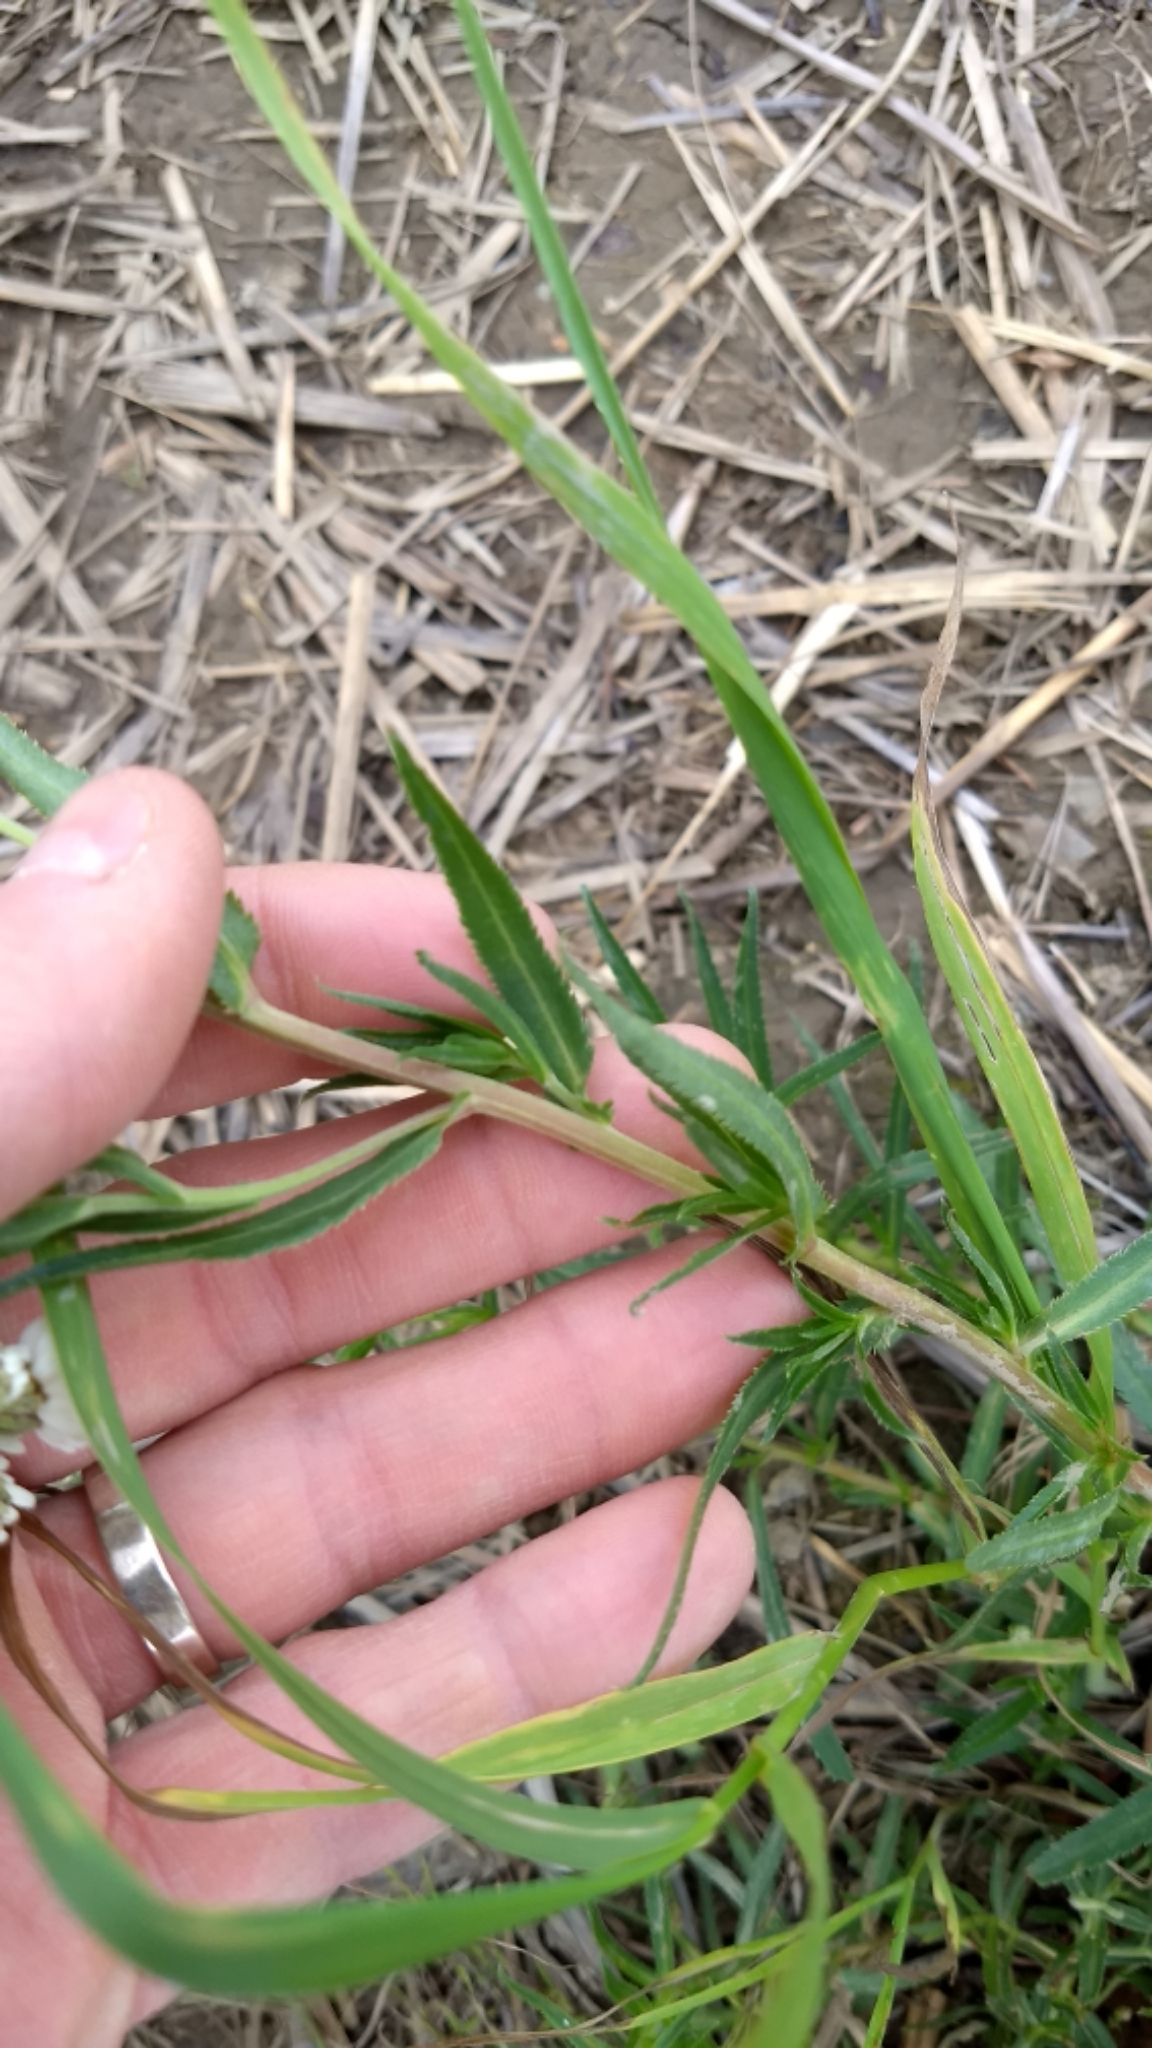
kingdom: Plantae
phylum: Tracheophyta
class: Magnoliopsida
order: Asterales
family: Asteraceae
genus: Achillea
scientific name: Achillea ptarmica
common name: Sneezeweed
